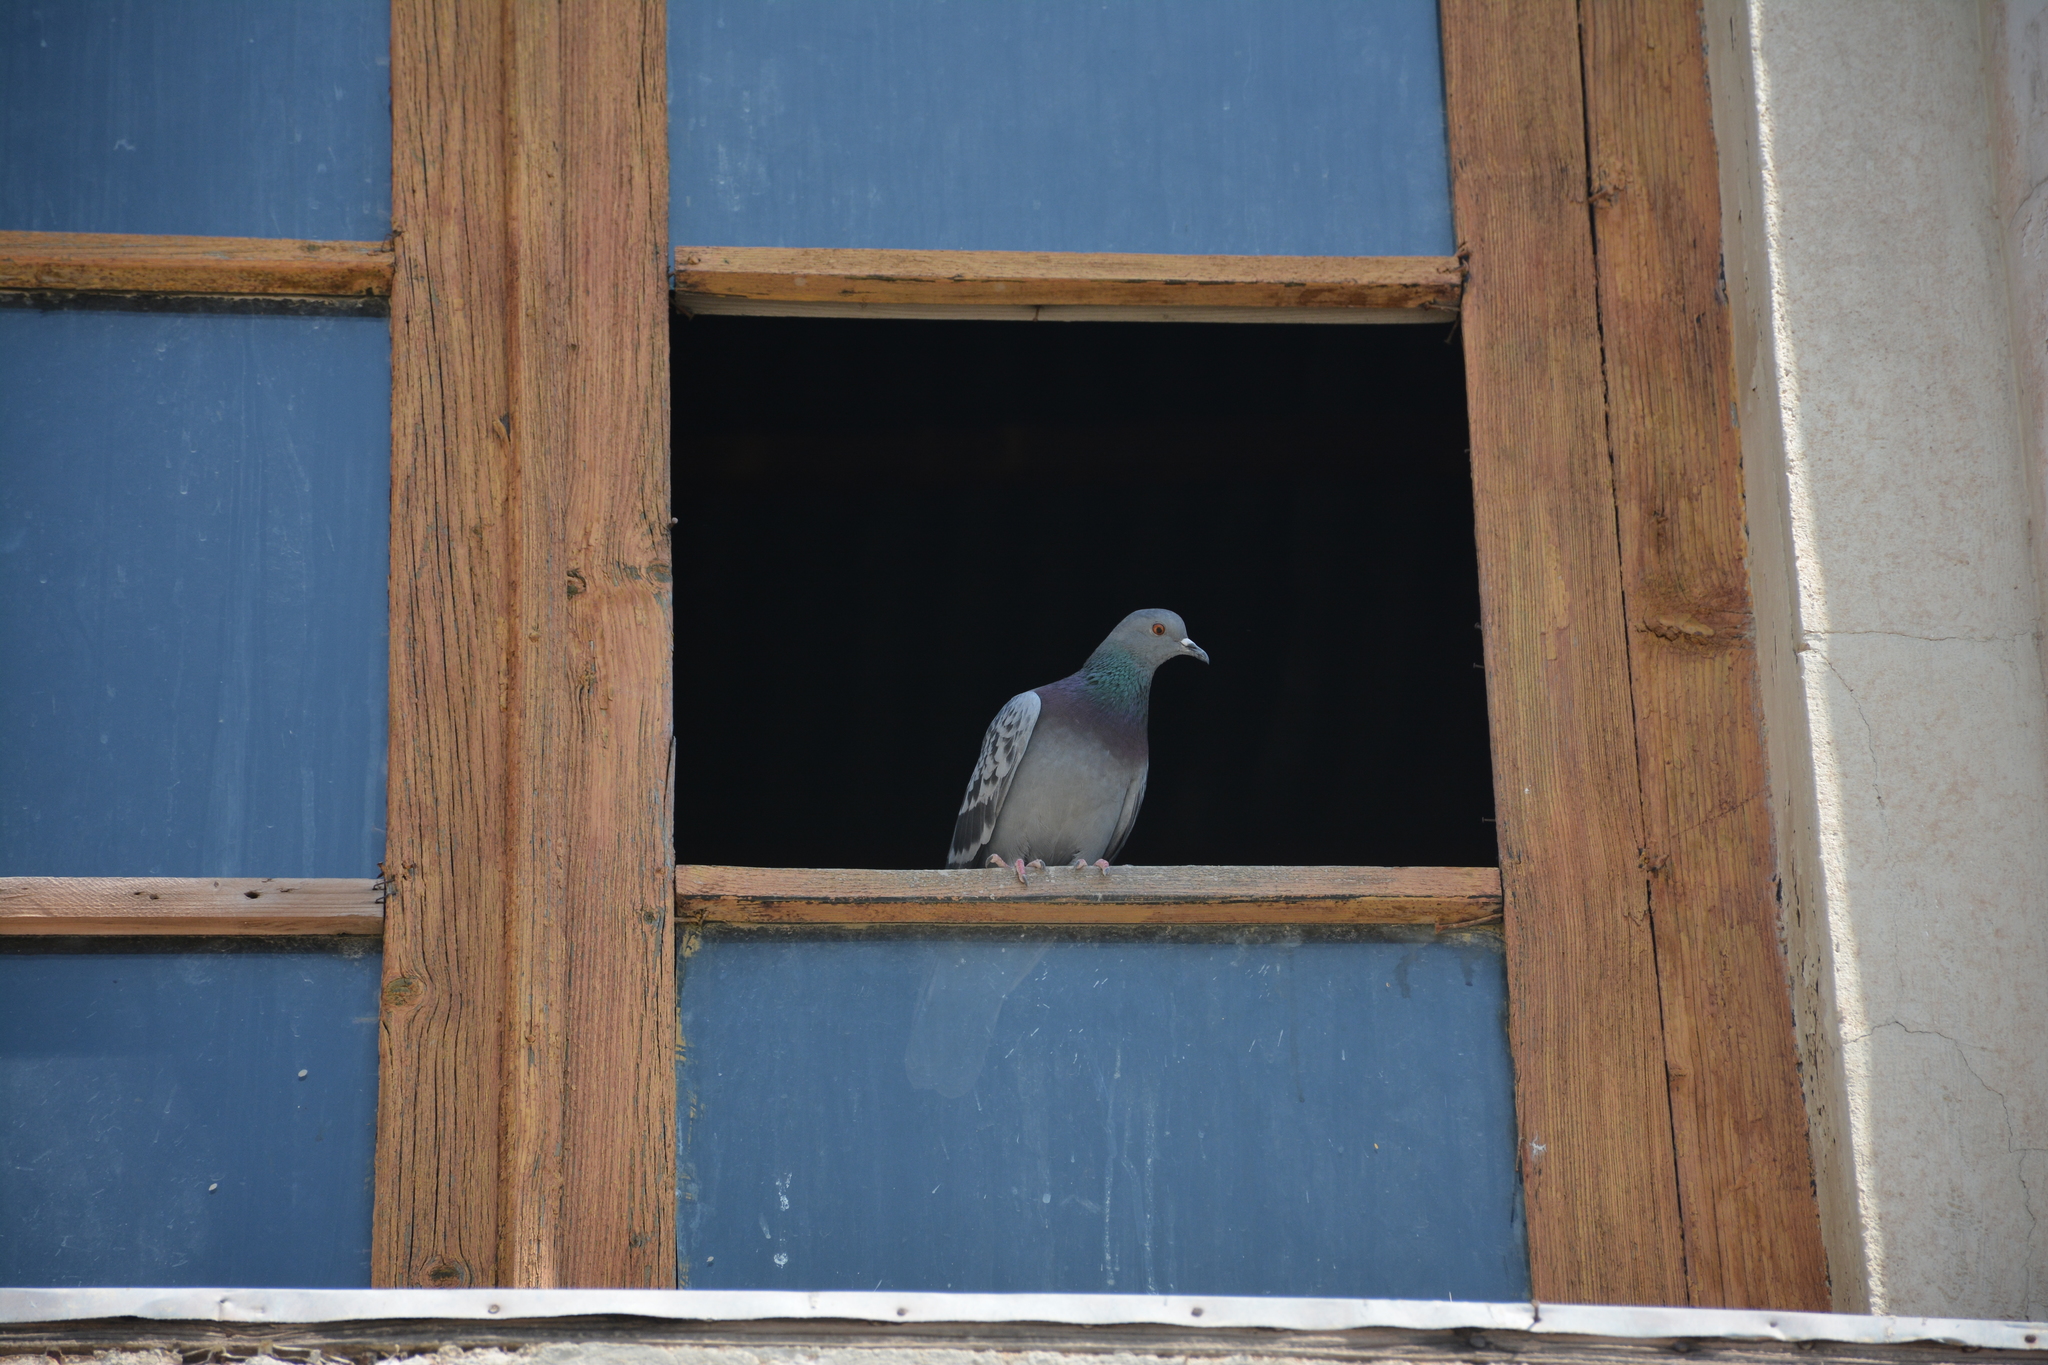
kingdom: Animalia
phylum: Chordata
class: Aves
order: Columbiformes
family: Columbidae
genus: Columba
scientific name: Columba livia
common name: Rock pigeon
